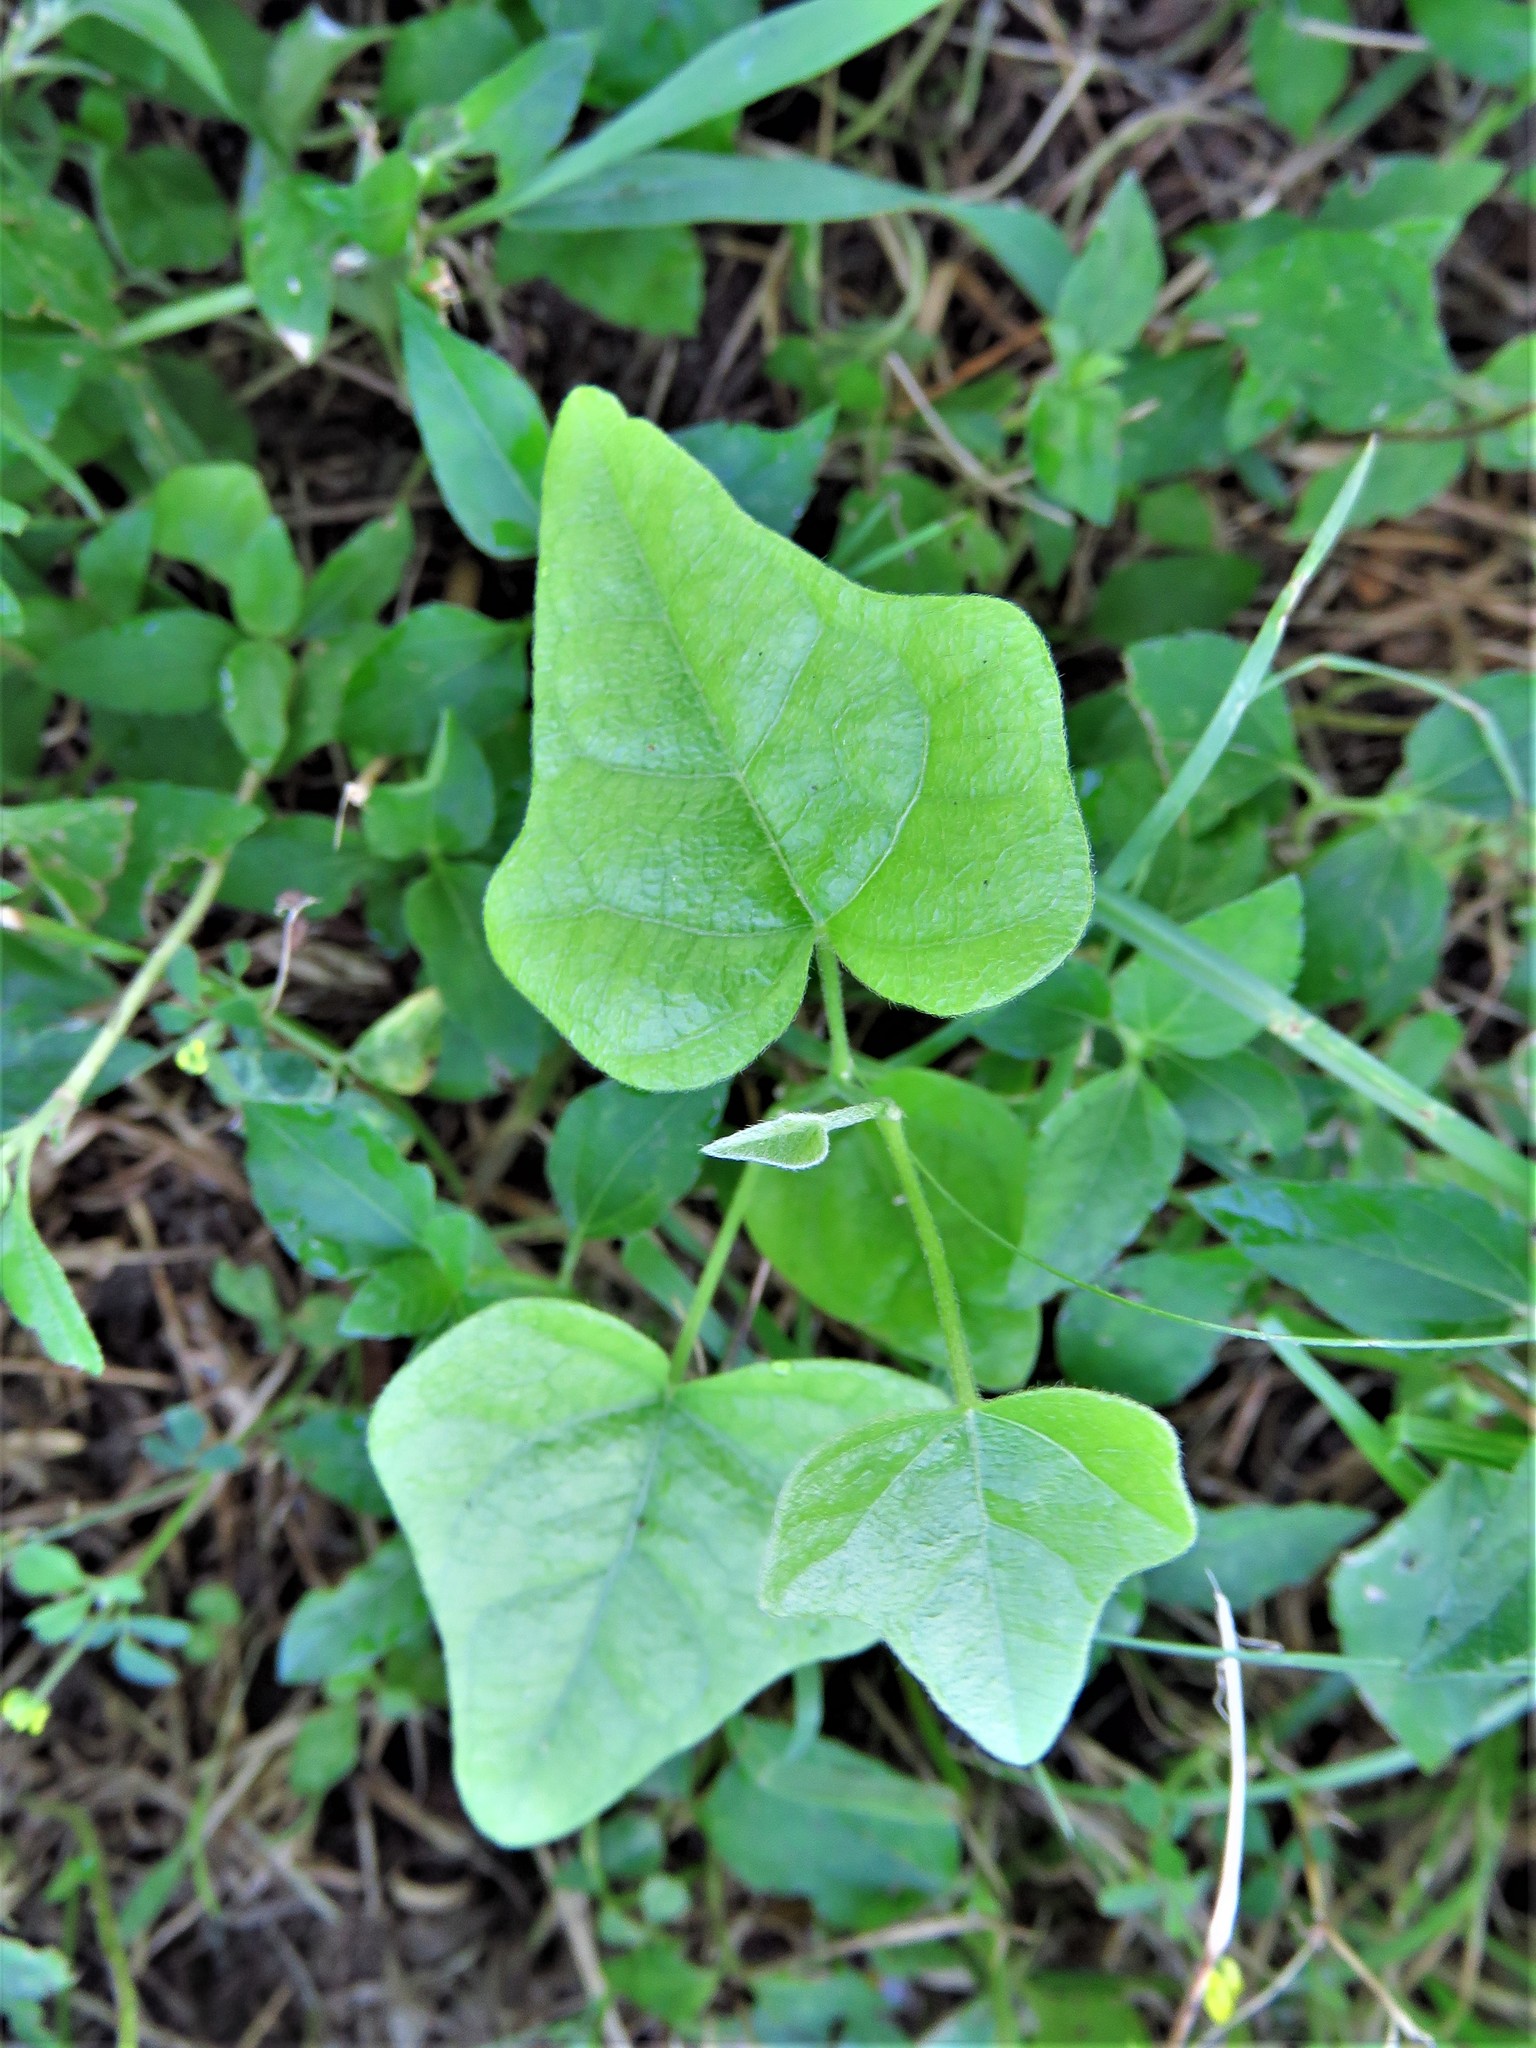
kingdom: Plantae
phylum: Tracheophyta
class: Magnoliopsida
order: Ranunculales
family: Menispermaceae
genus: Cocculus
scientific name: Cocculus carolinus
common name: Carolina moonseed
